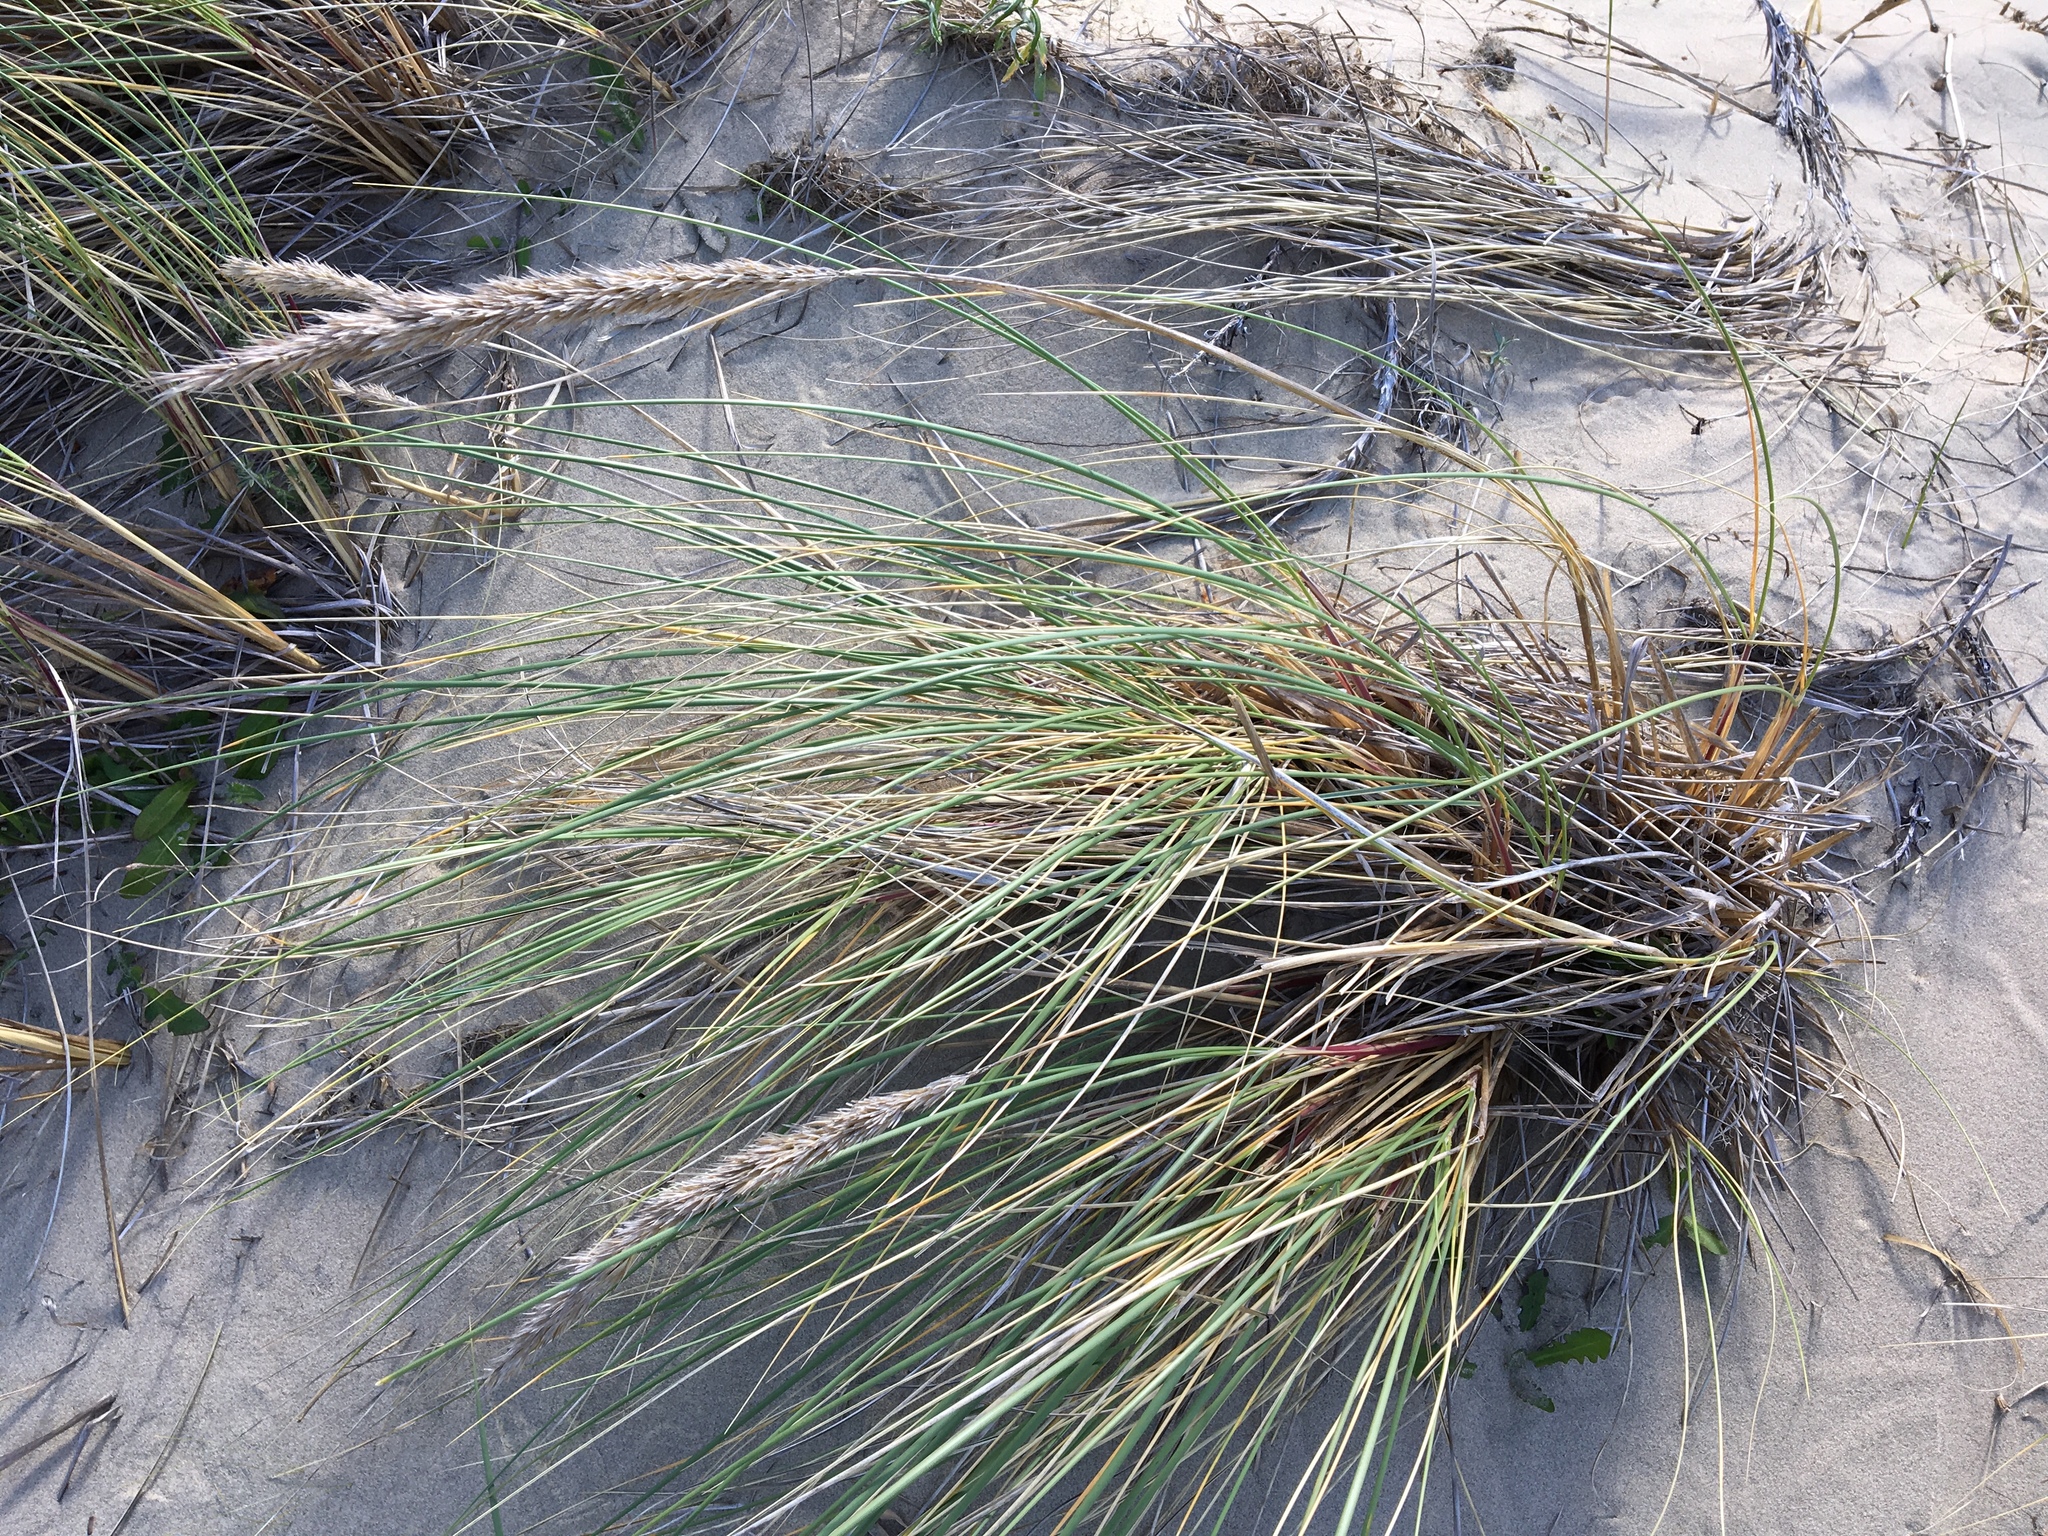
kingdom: Plantae
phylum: Tracheophyta
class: Liliopsida
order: Poales
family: Poaceae
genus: Calamagrostis
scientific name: Calamagrostis arenaria
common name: European beachgrass
